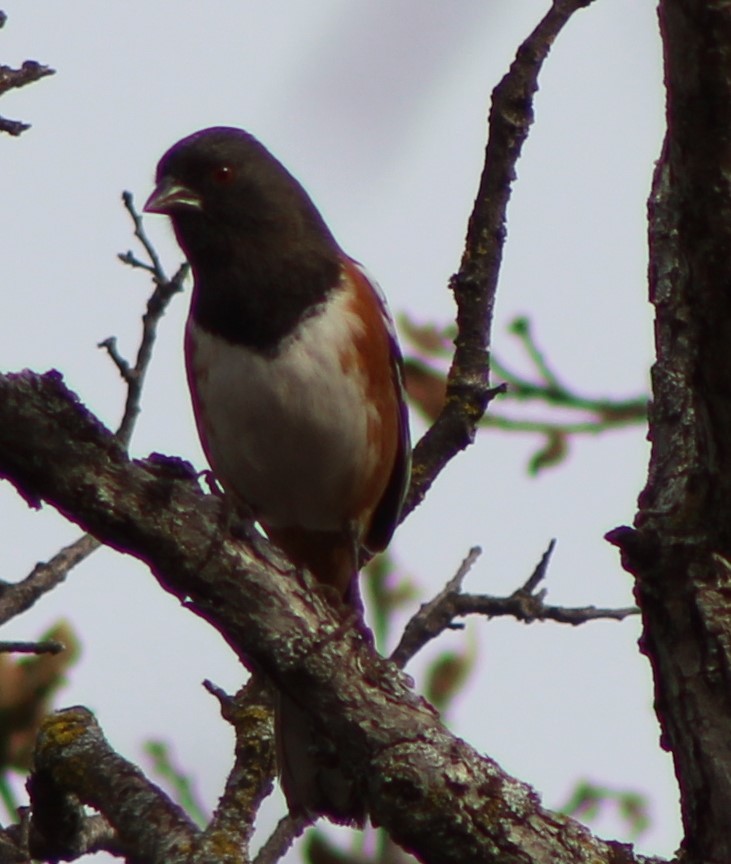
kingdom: Animalia
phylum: Chordata
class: Aves
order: Passeriformes
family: Passerellidae
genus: Pipilo
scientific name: Pipilo maculatus
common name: Spotted towhee
